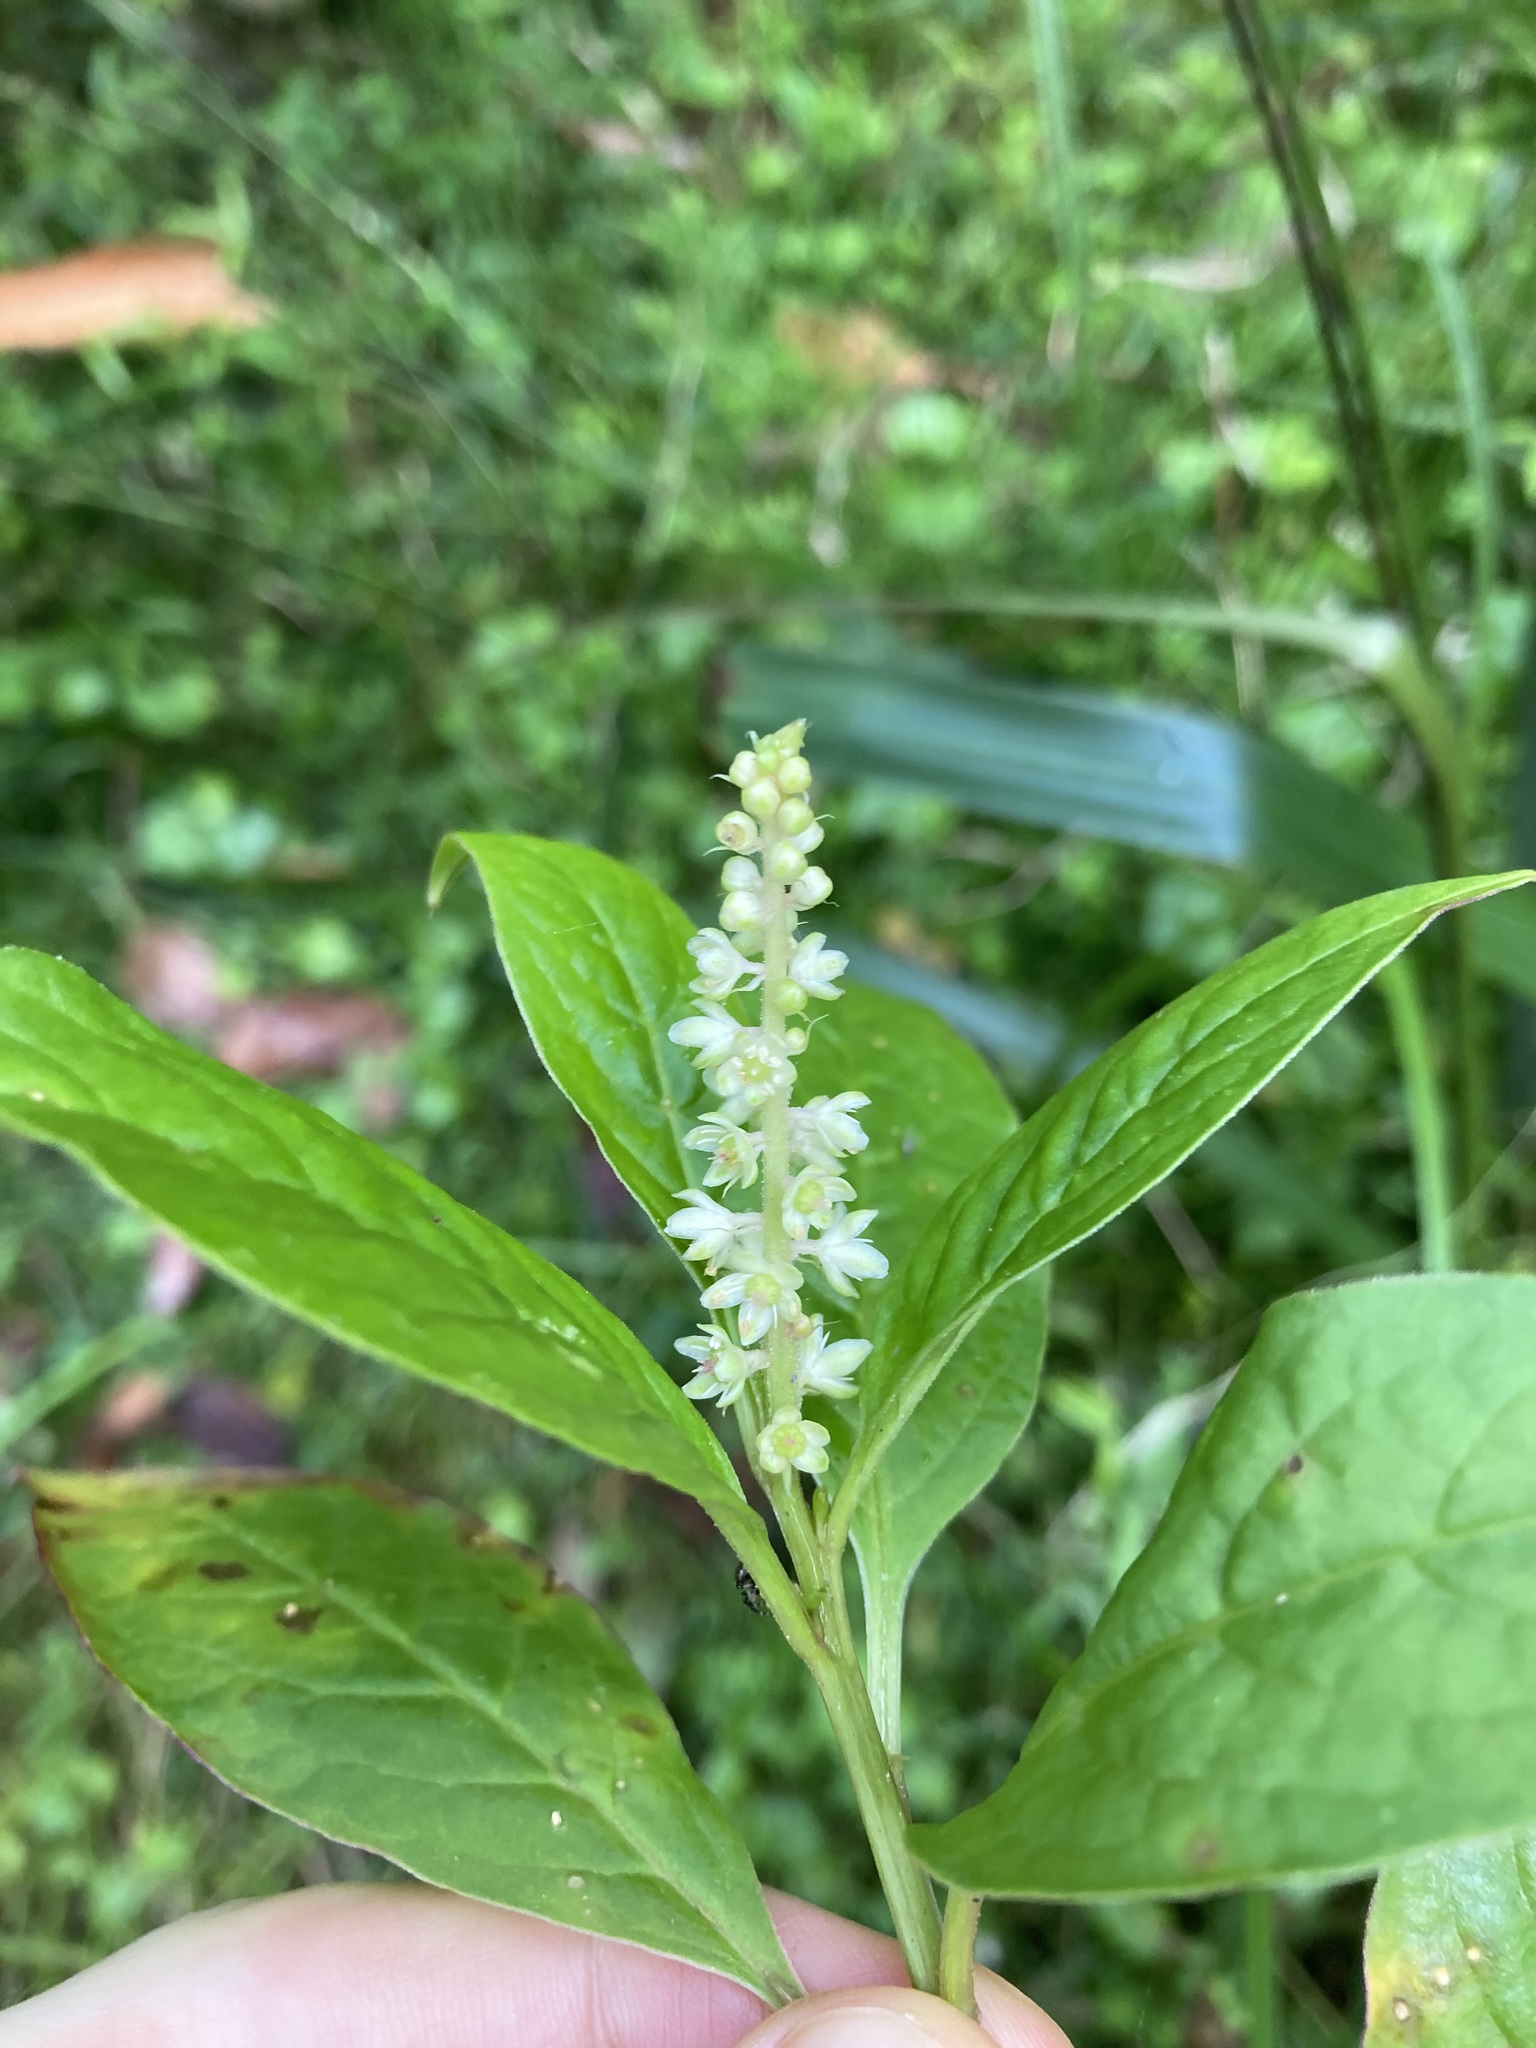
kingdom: Plantae
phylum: Tracheophyta
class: Magnoliopsida
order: Caryophyllales
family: Phytolaccaceae
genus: Phytolacca
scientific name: Phytolacca icosandra
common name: Button pokeweed
